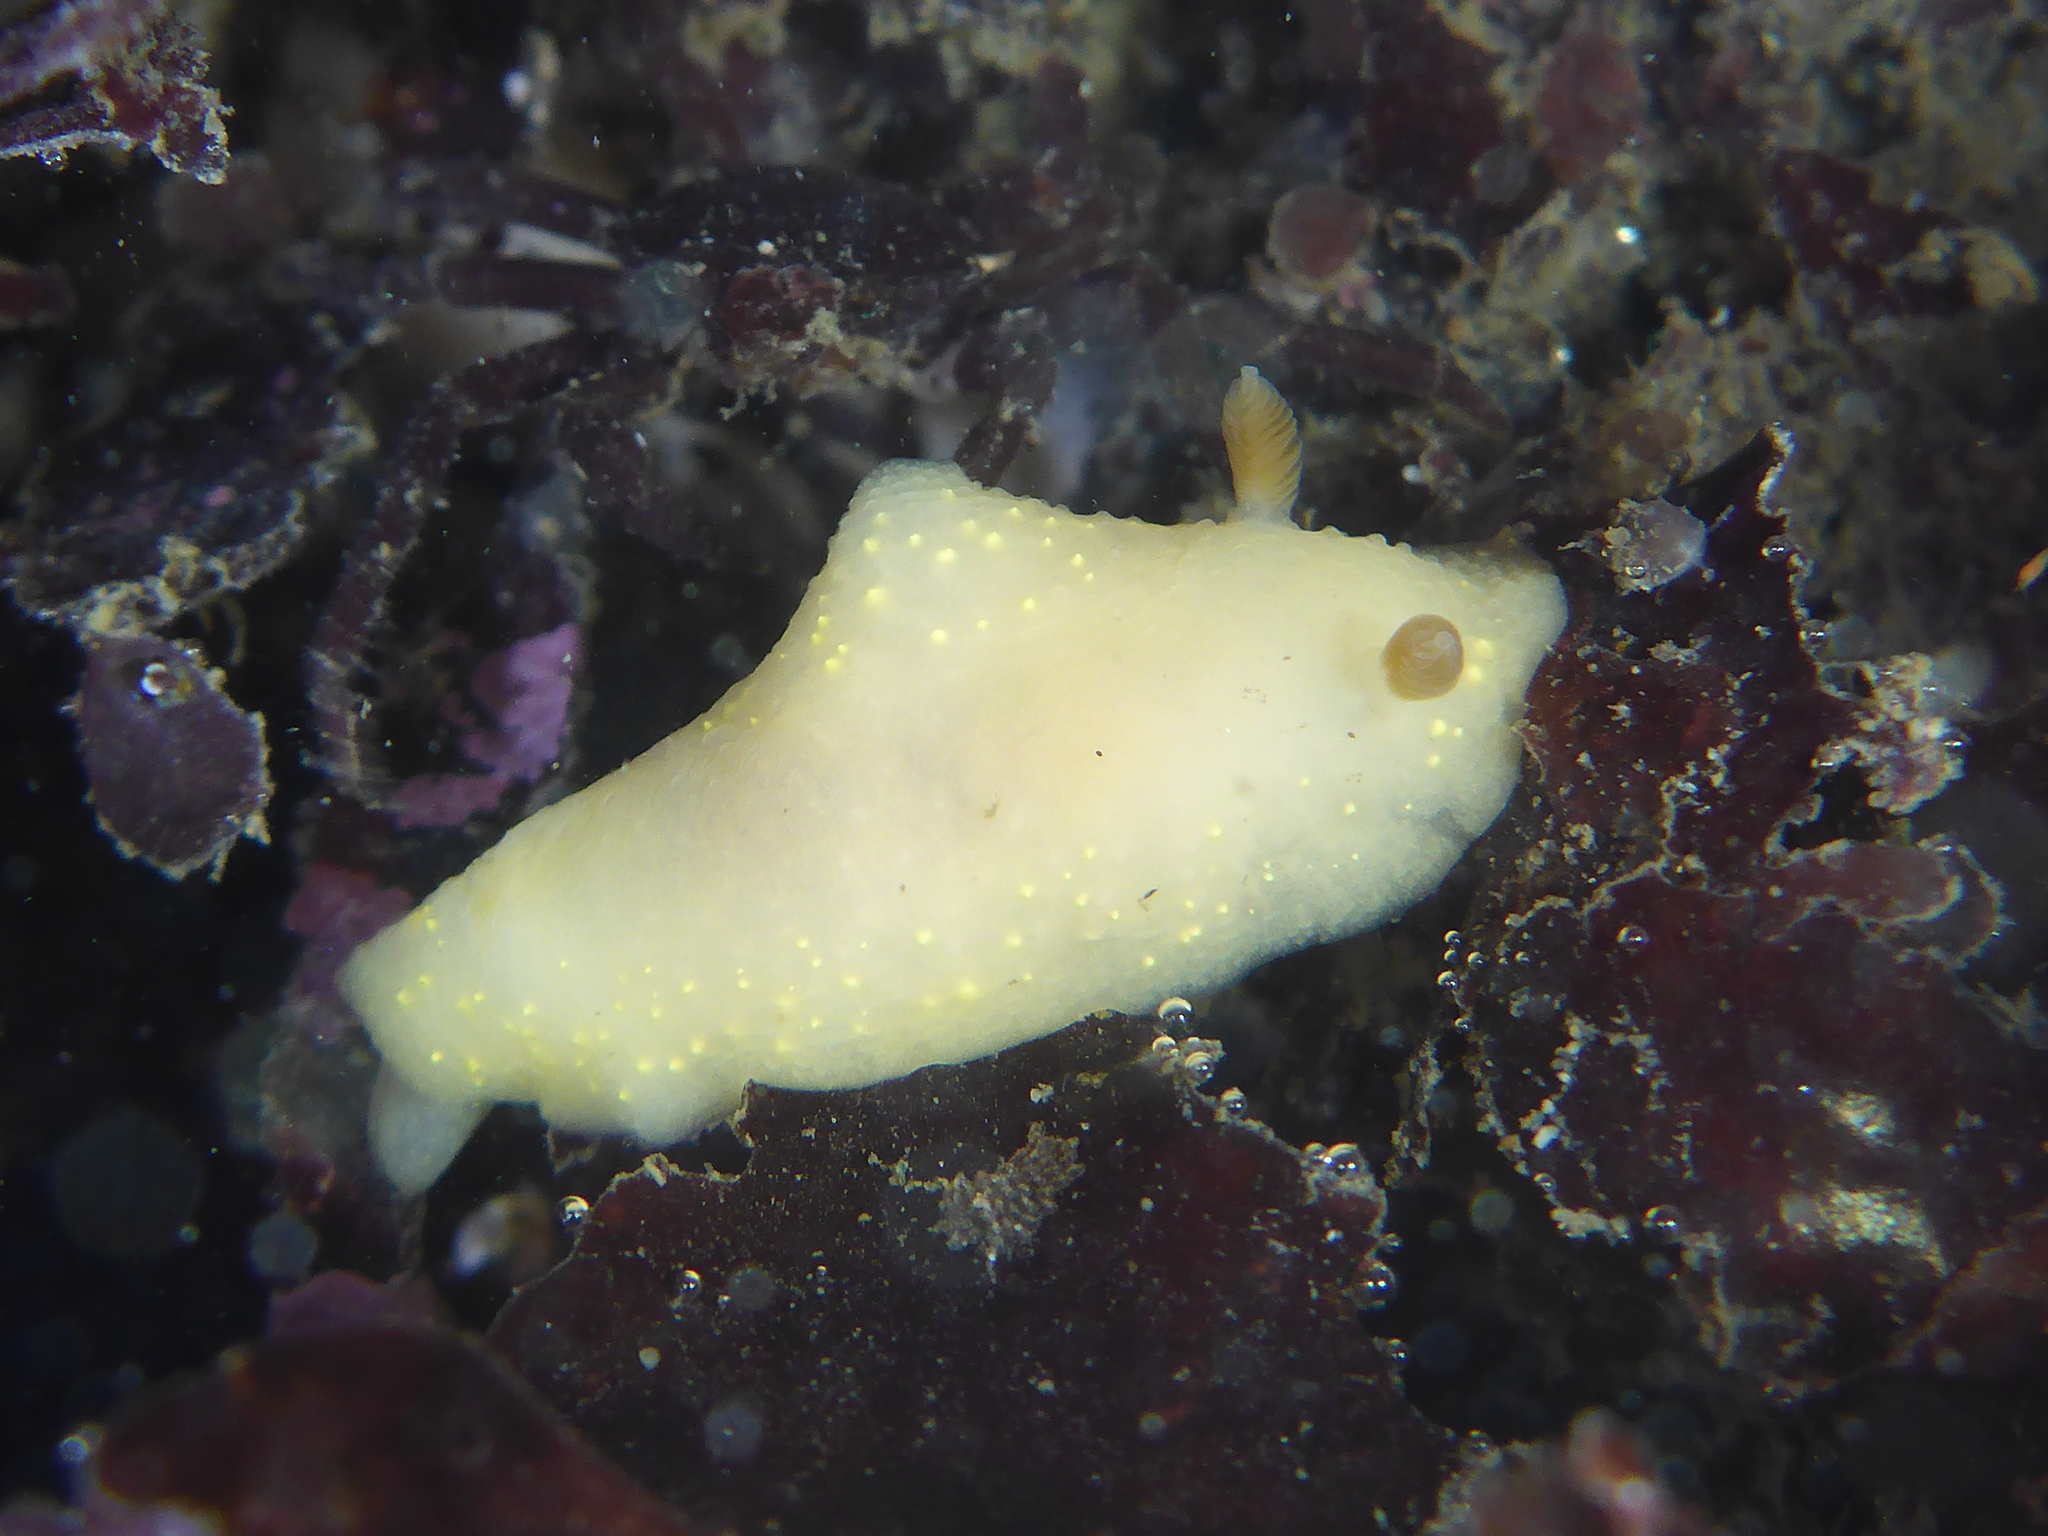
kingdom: Animalia
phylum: Mollusca
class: Gastropoda
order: Nudibranchia
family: Cadlinidae
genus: Cadlina
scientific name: Cadlina modesta
